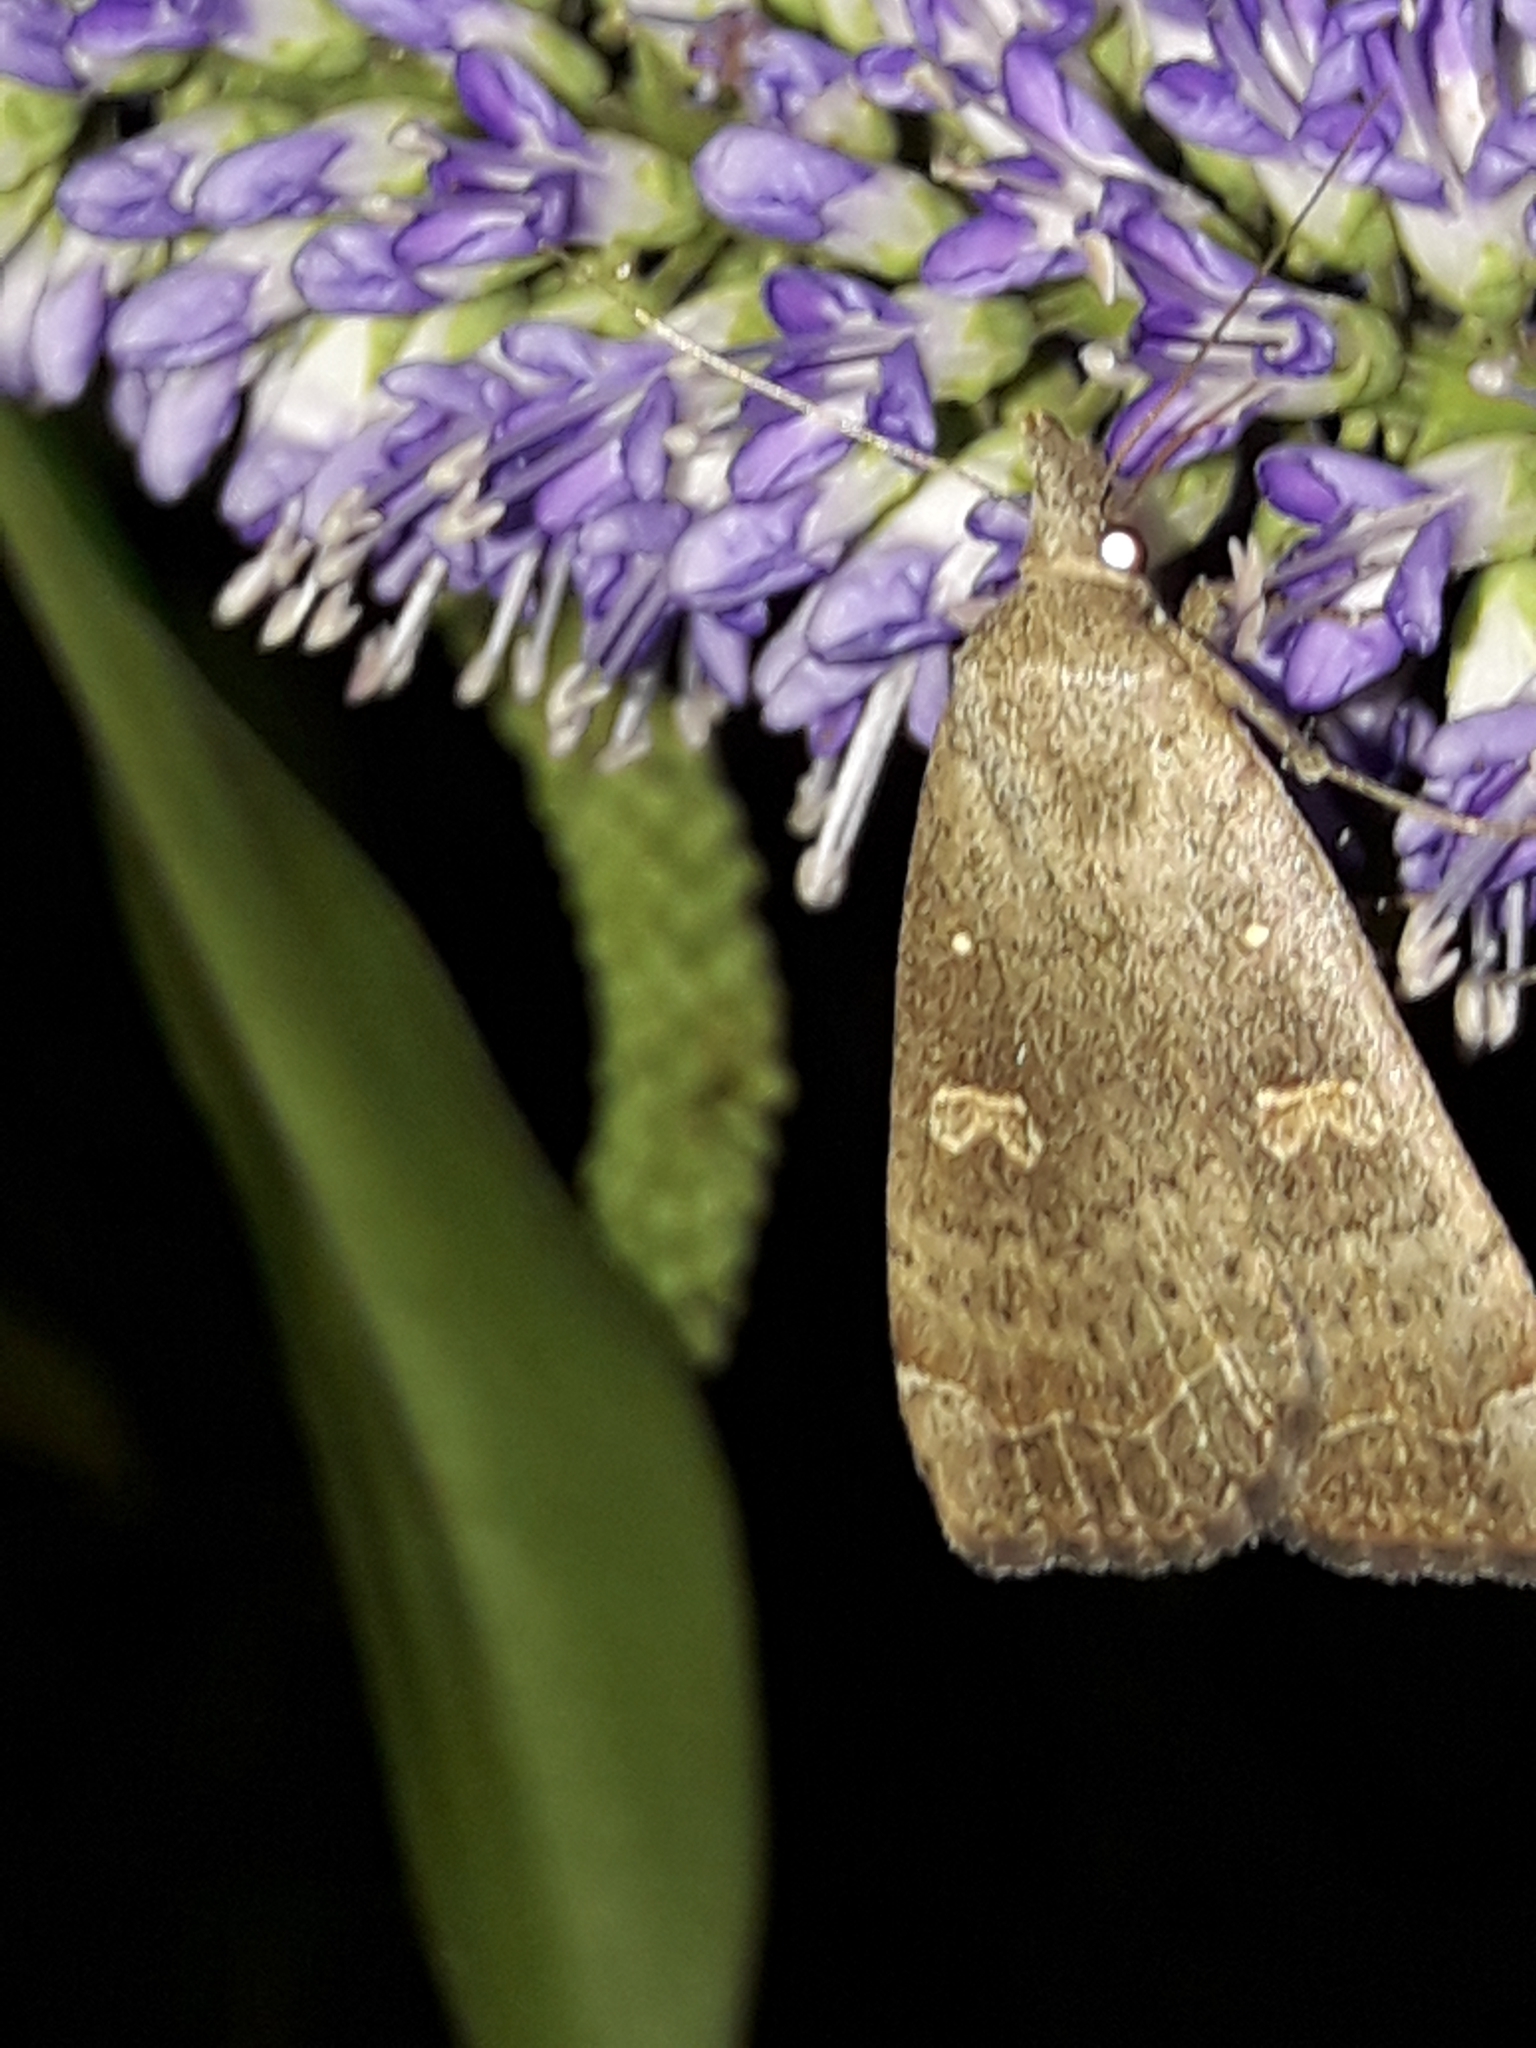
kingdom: Animalia
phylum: Arthropoda
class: Insecta
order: Lepidoptera
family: Erebidae
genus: Rhapsa
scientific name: Rhapsa scotosialis
